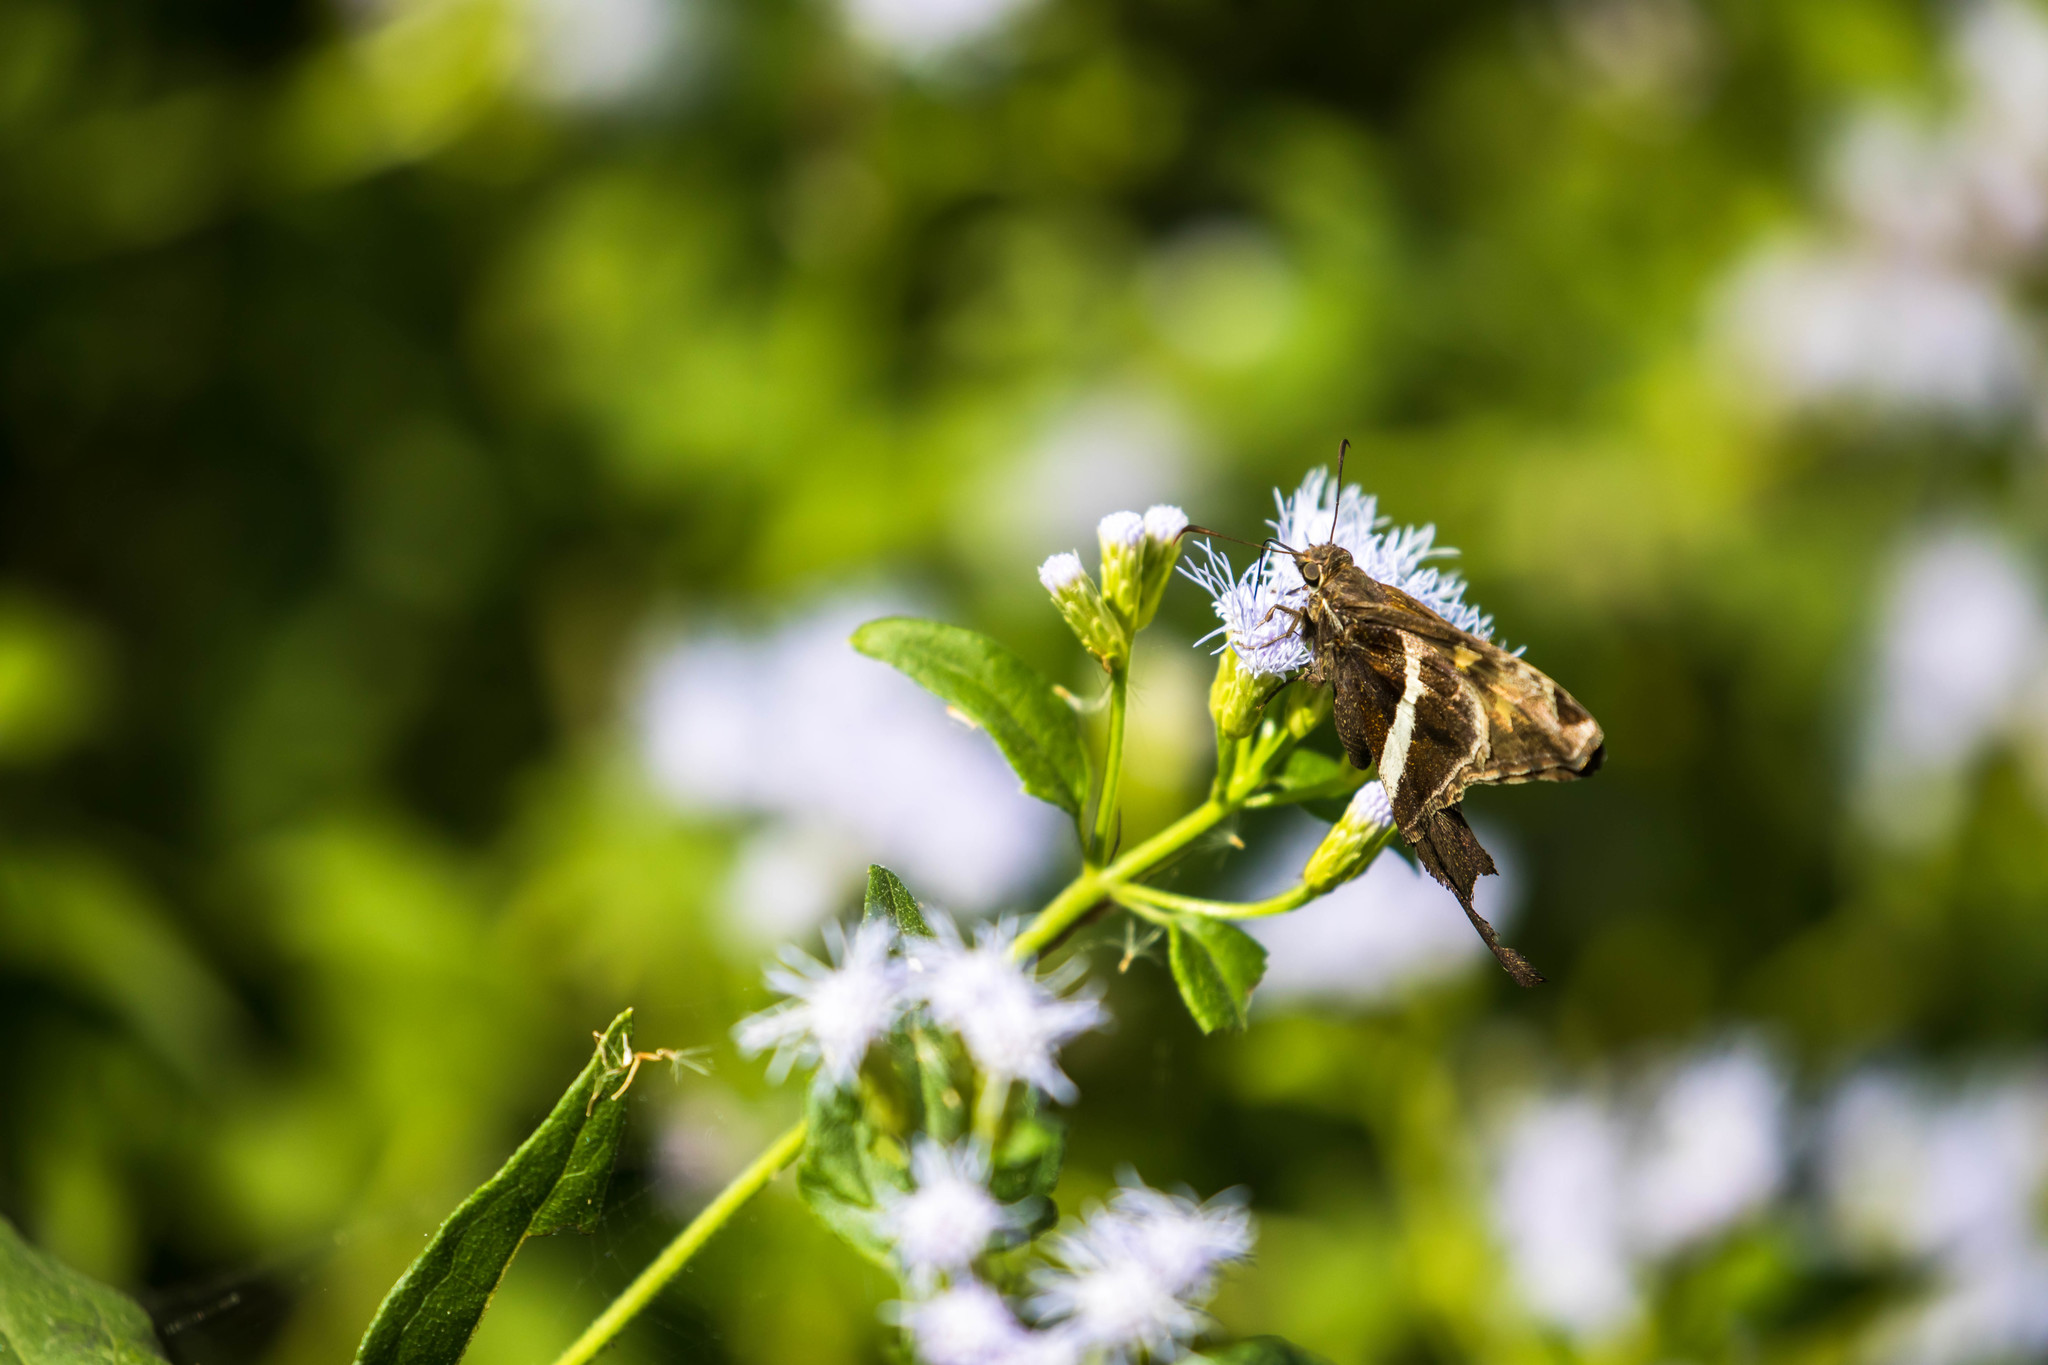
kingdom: Animalia
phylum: Arthropoda
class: Insecta
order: Lepidoptera
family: Hesperiidae
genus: Chioides
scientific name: Chioides catillus
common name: Silverbanded skipper
